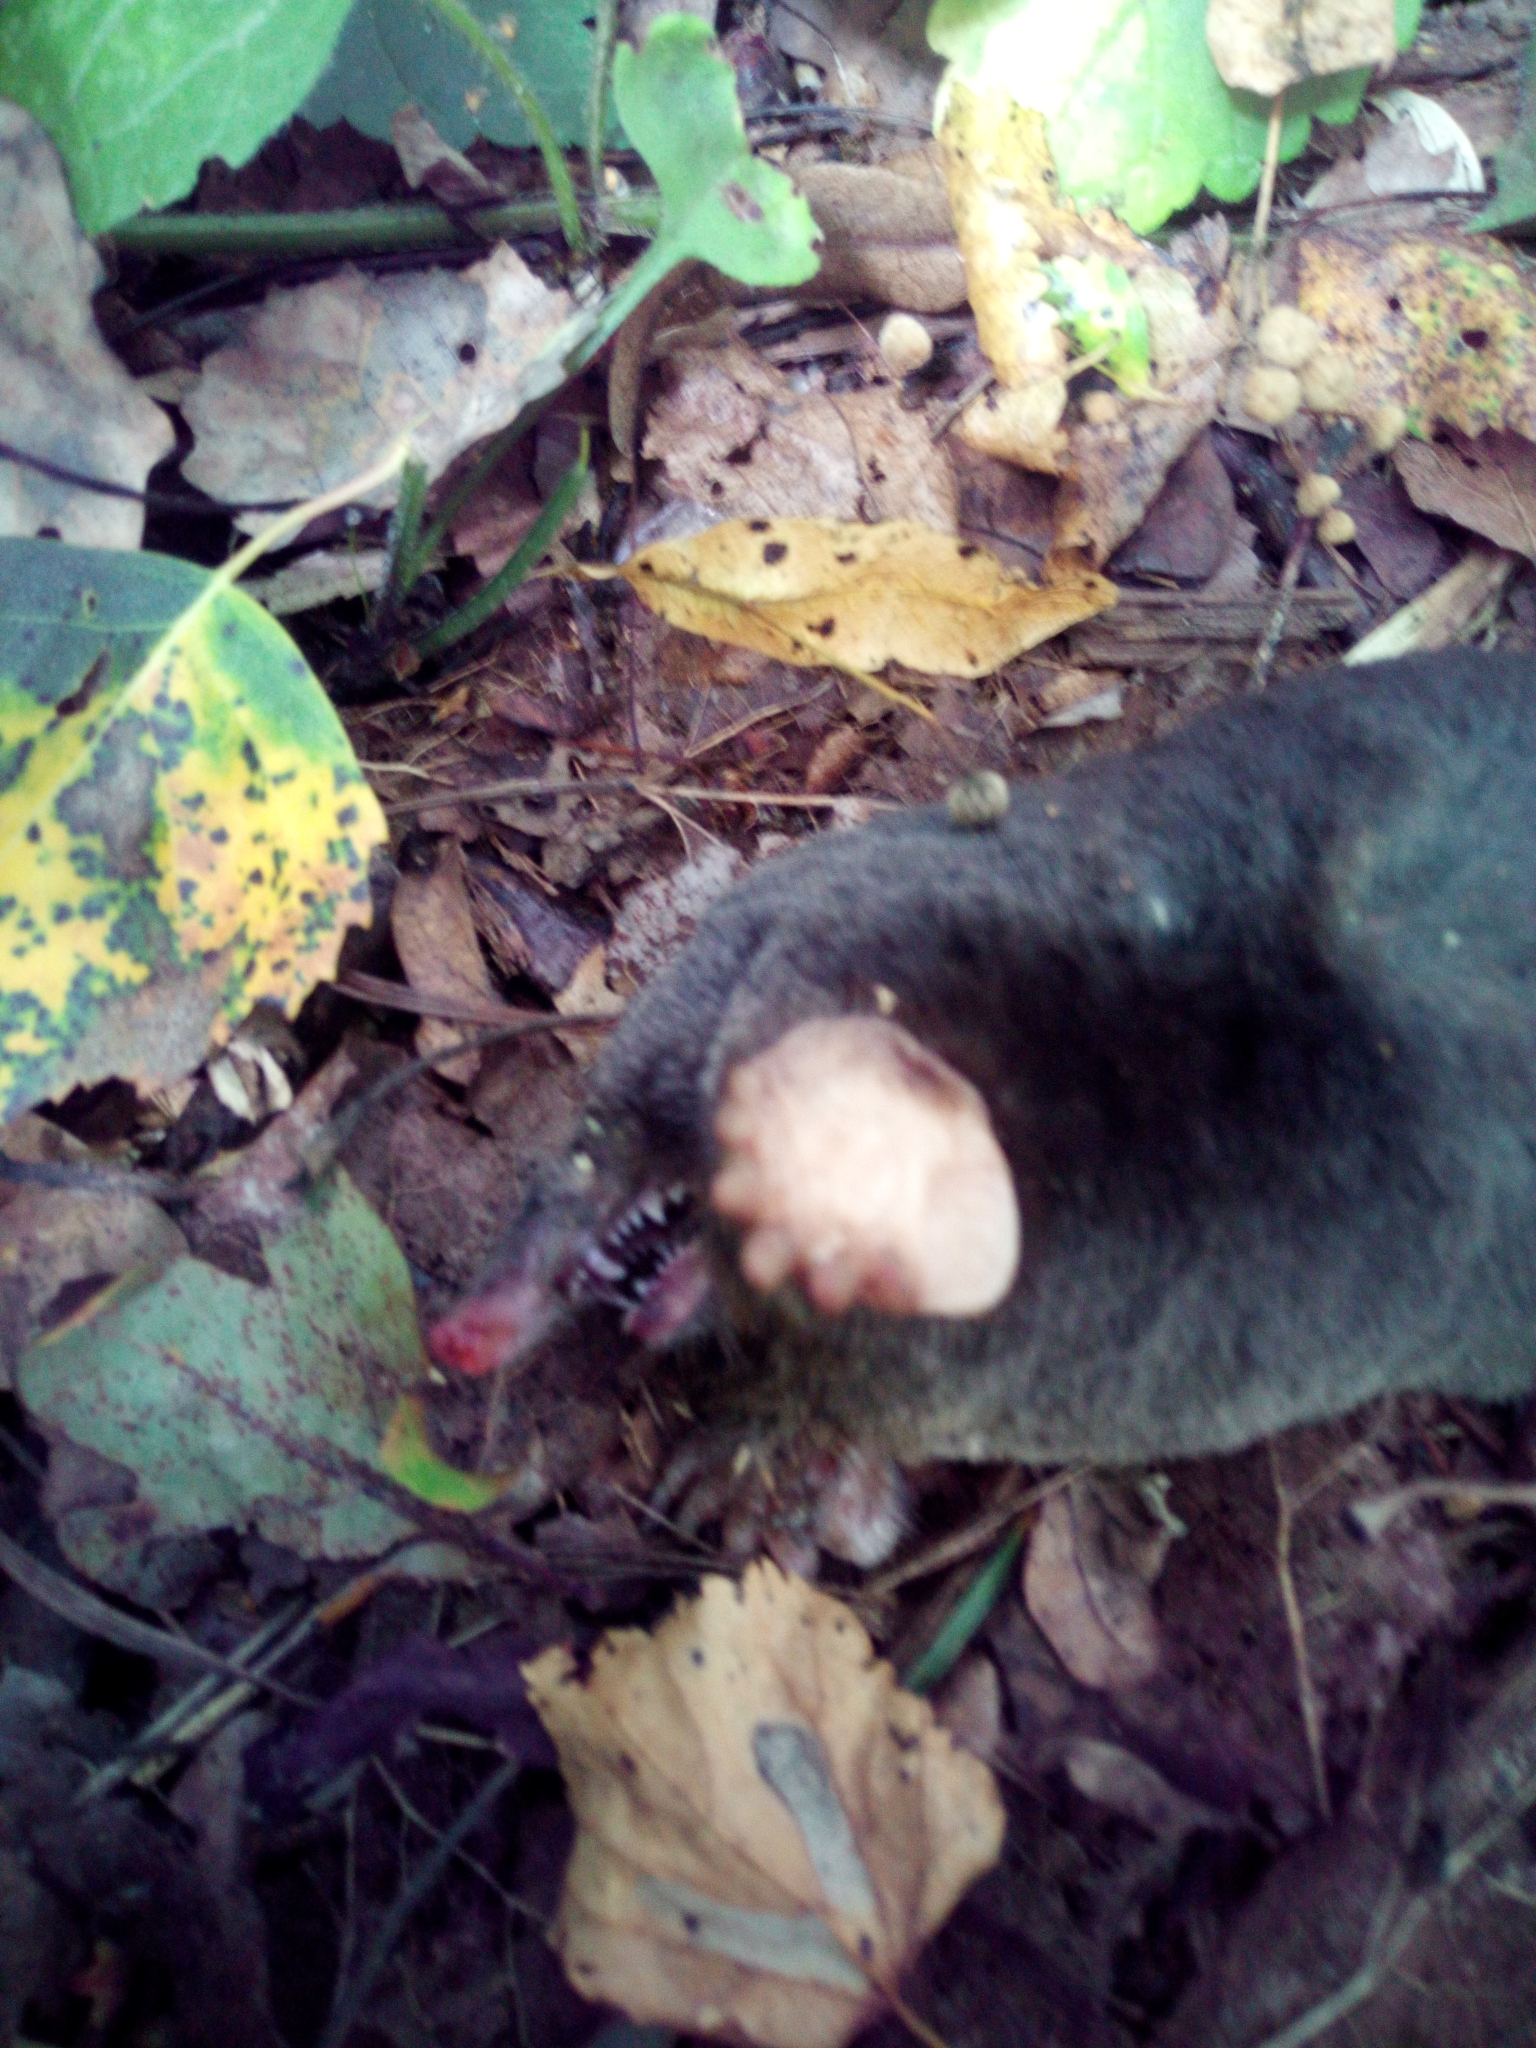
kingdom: Animalia
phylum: Chordata
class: Mammalia
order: Soricomorpha
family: Talpidae
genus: Talpa
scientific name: Talpa europaea
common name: European mole
